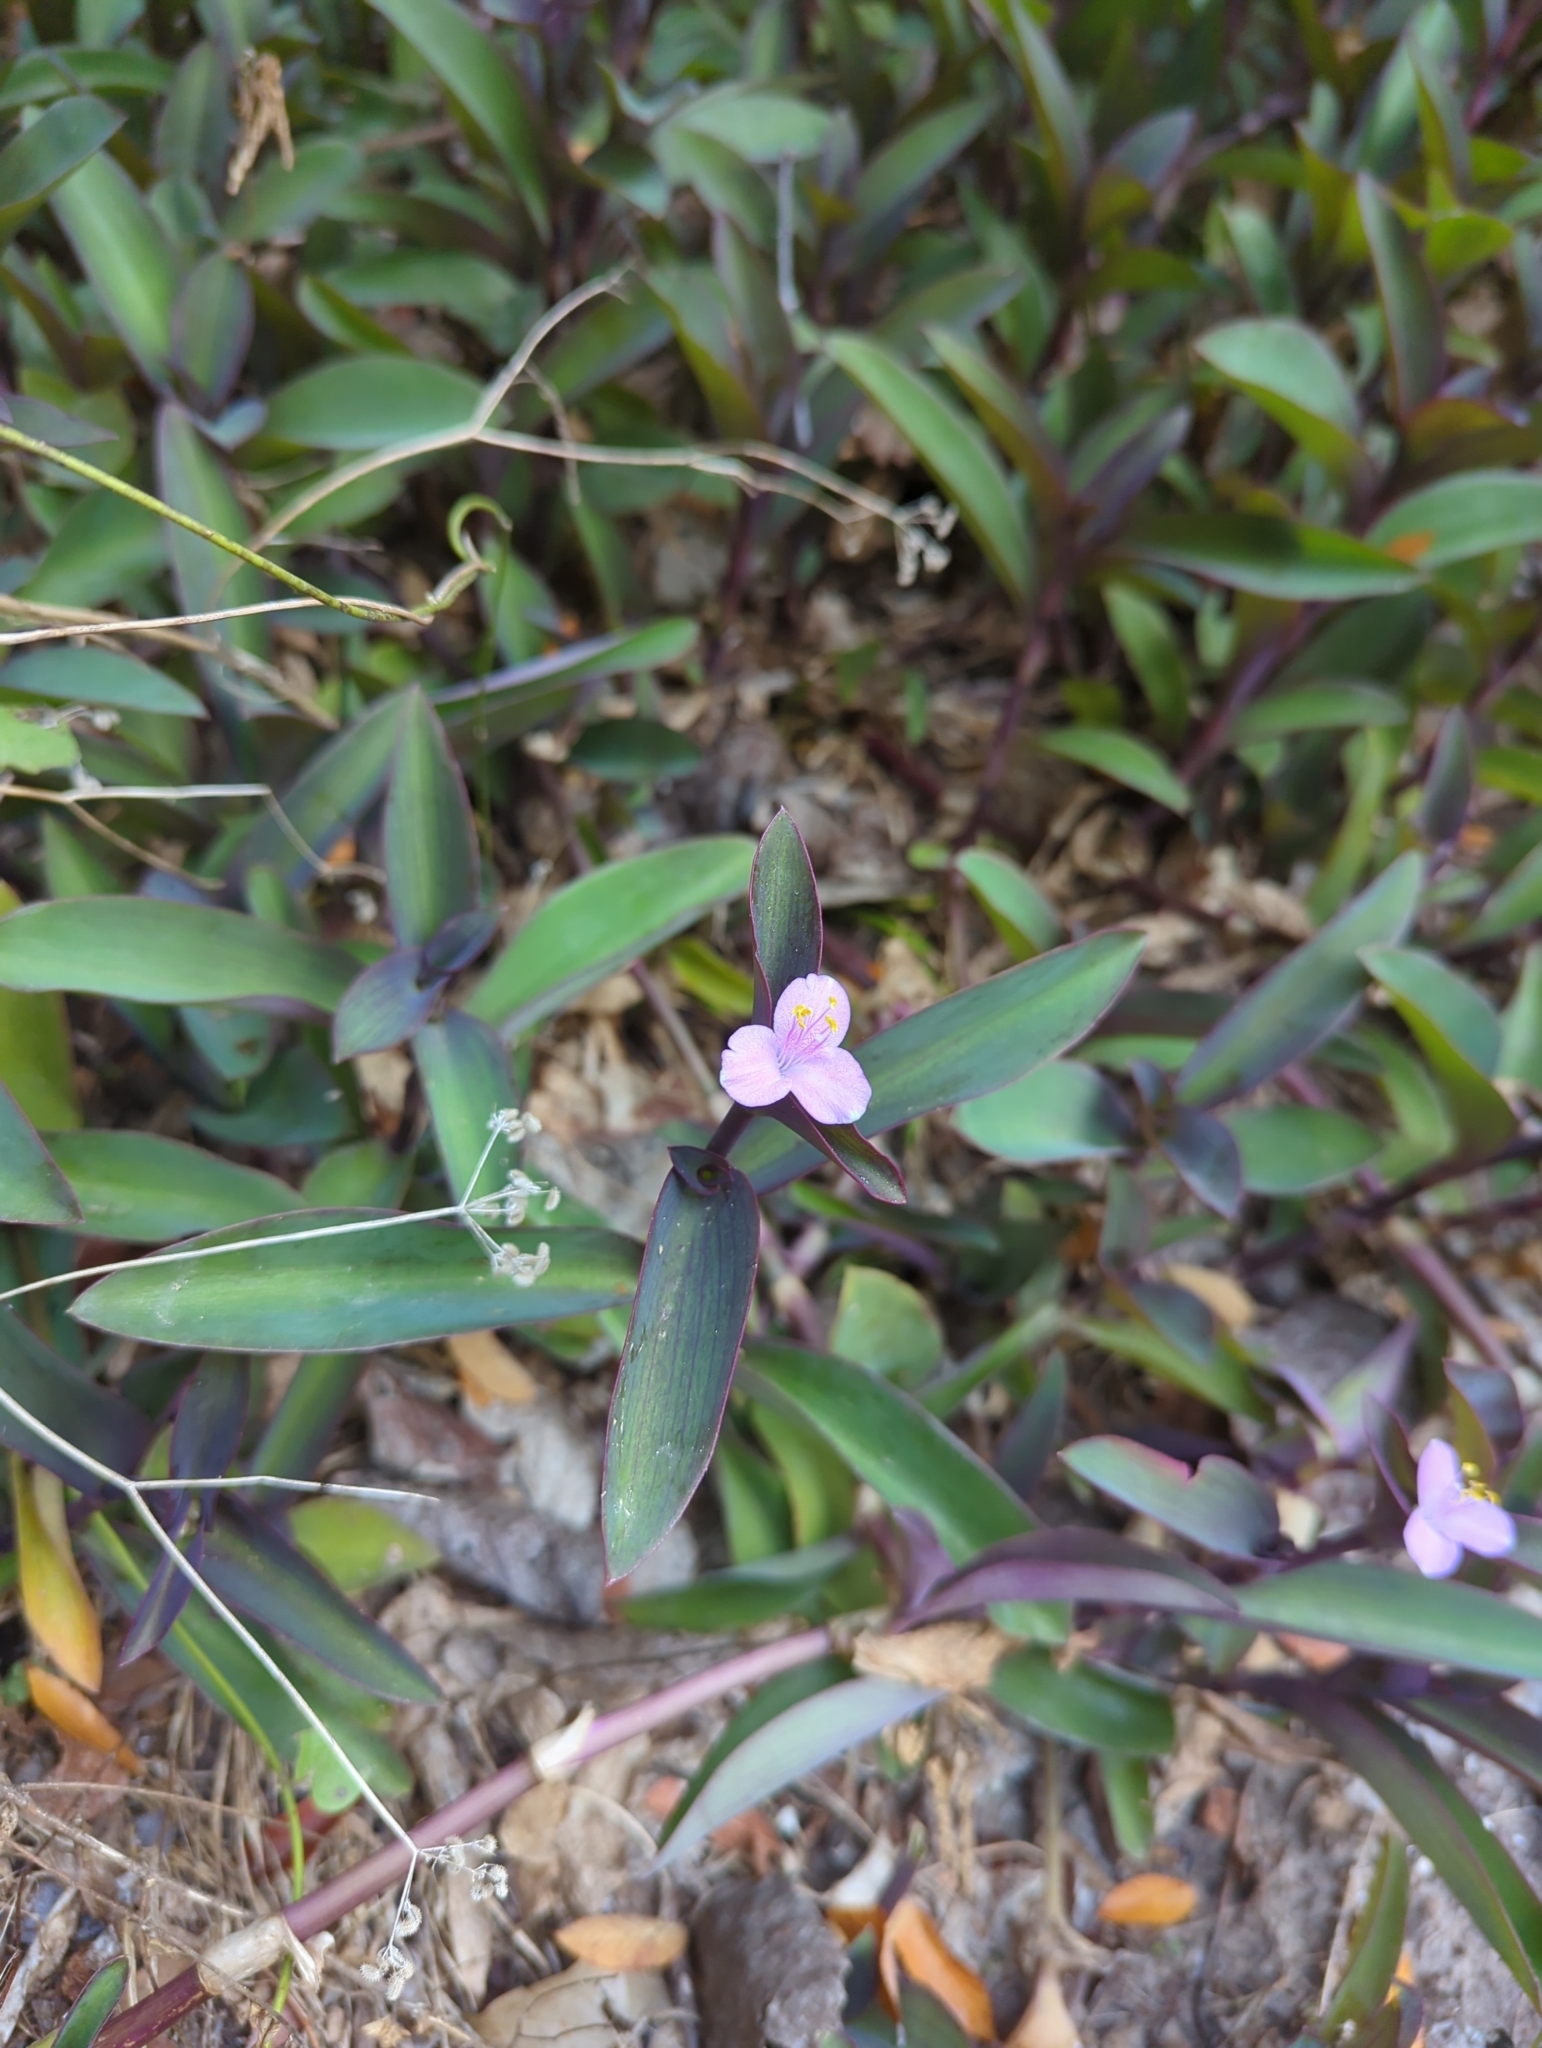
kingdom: Plantae
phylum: Tracheophyta
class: Liliopsida
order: Commelinales
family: Commelinaceae
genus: Tradescantia
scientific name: Tradescantia pallida
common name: Purpleheart
